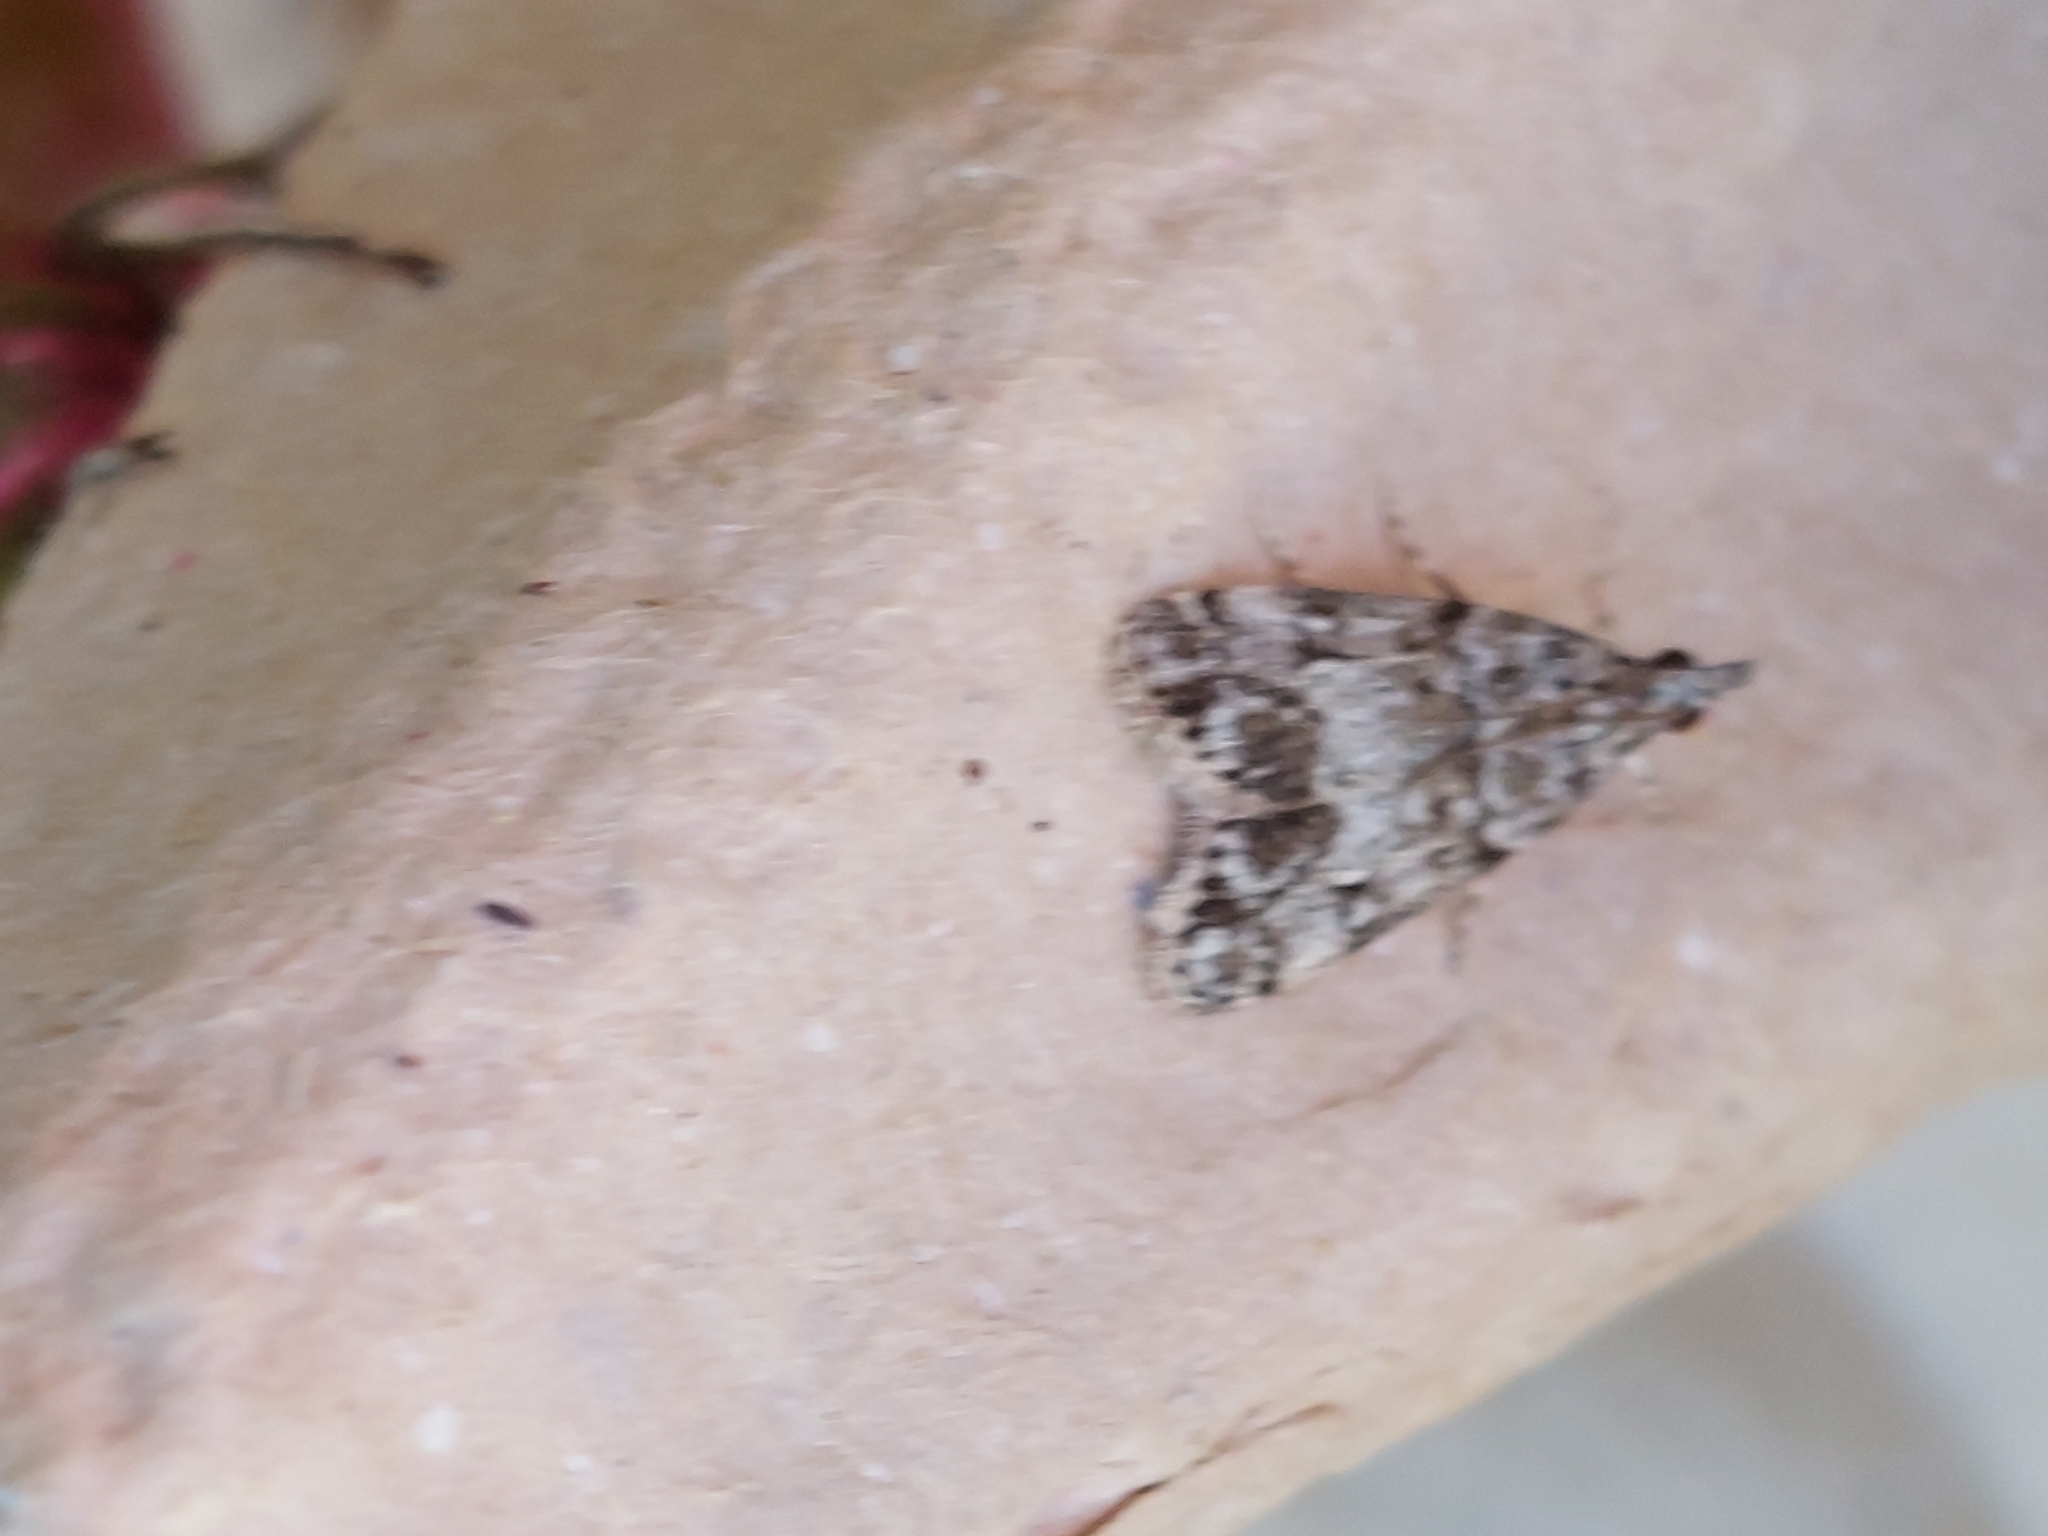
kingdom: Animalia
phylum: Arthropoda
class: Insecta
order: Lepidoptera
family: Crambidae
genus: Eudonia
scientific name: Eudonia lacustrata
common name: Little grey
